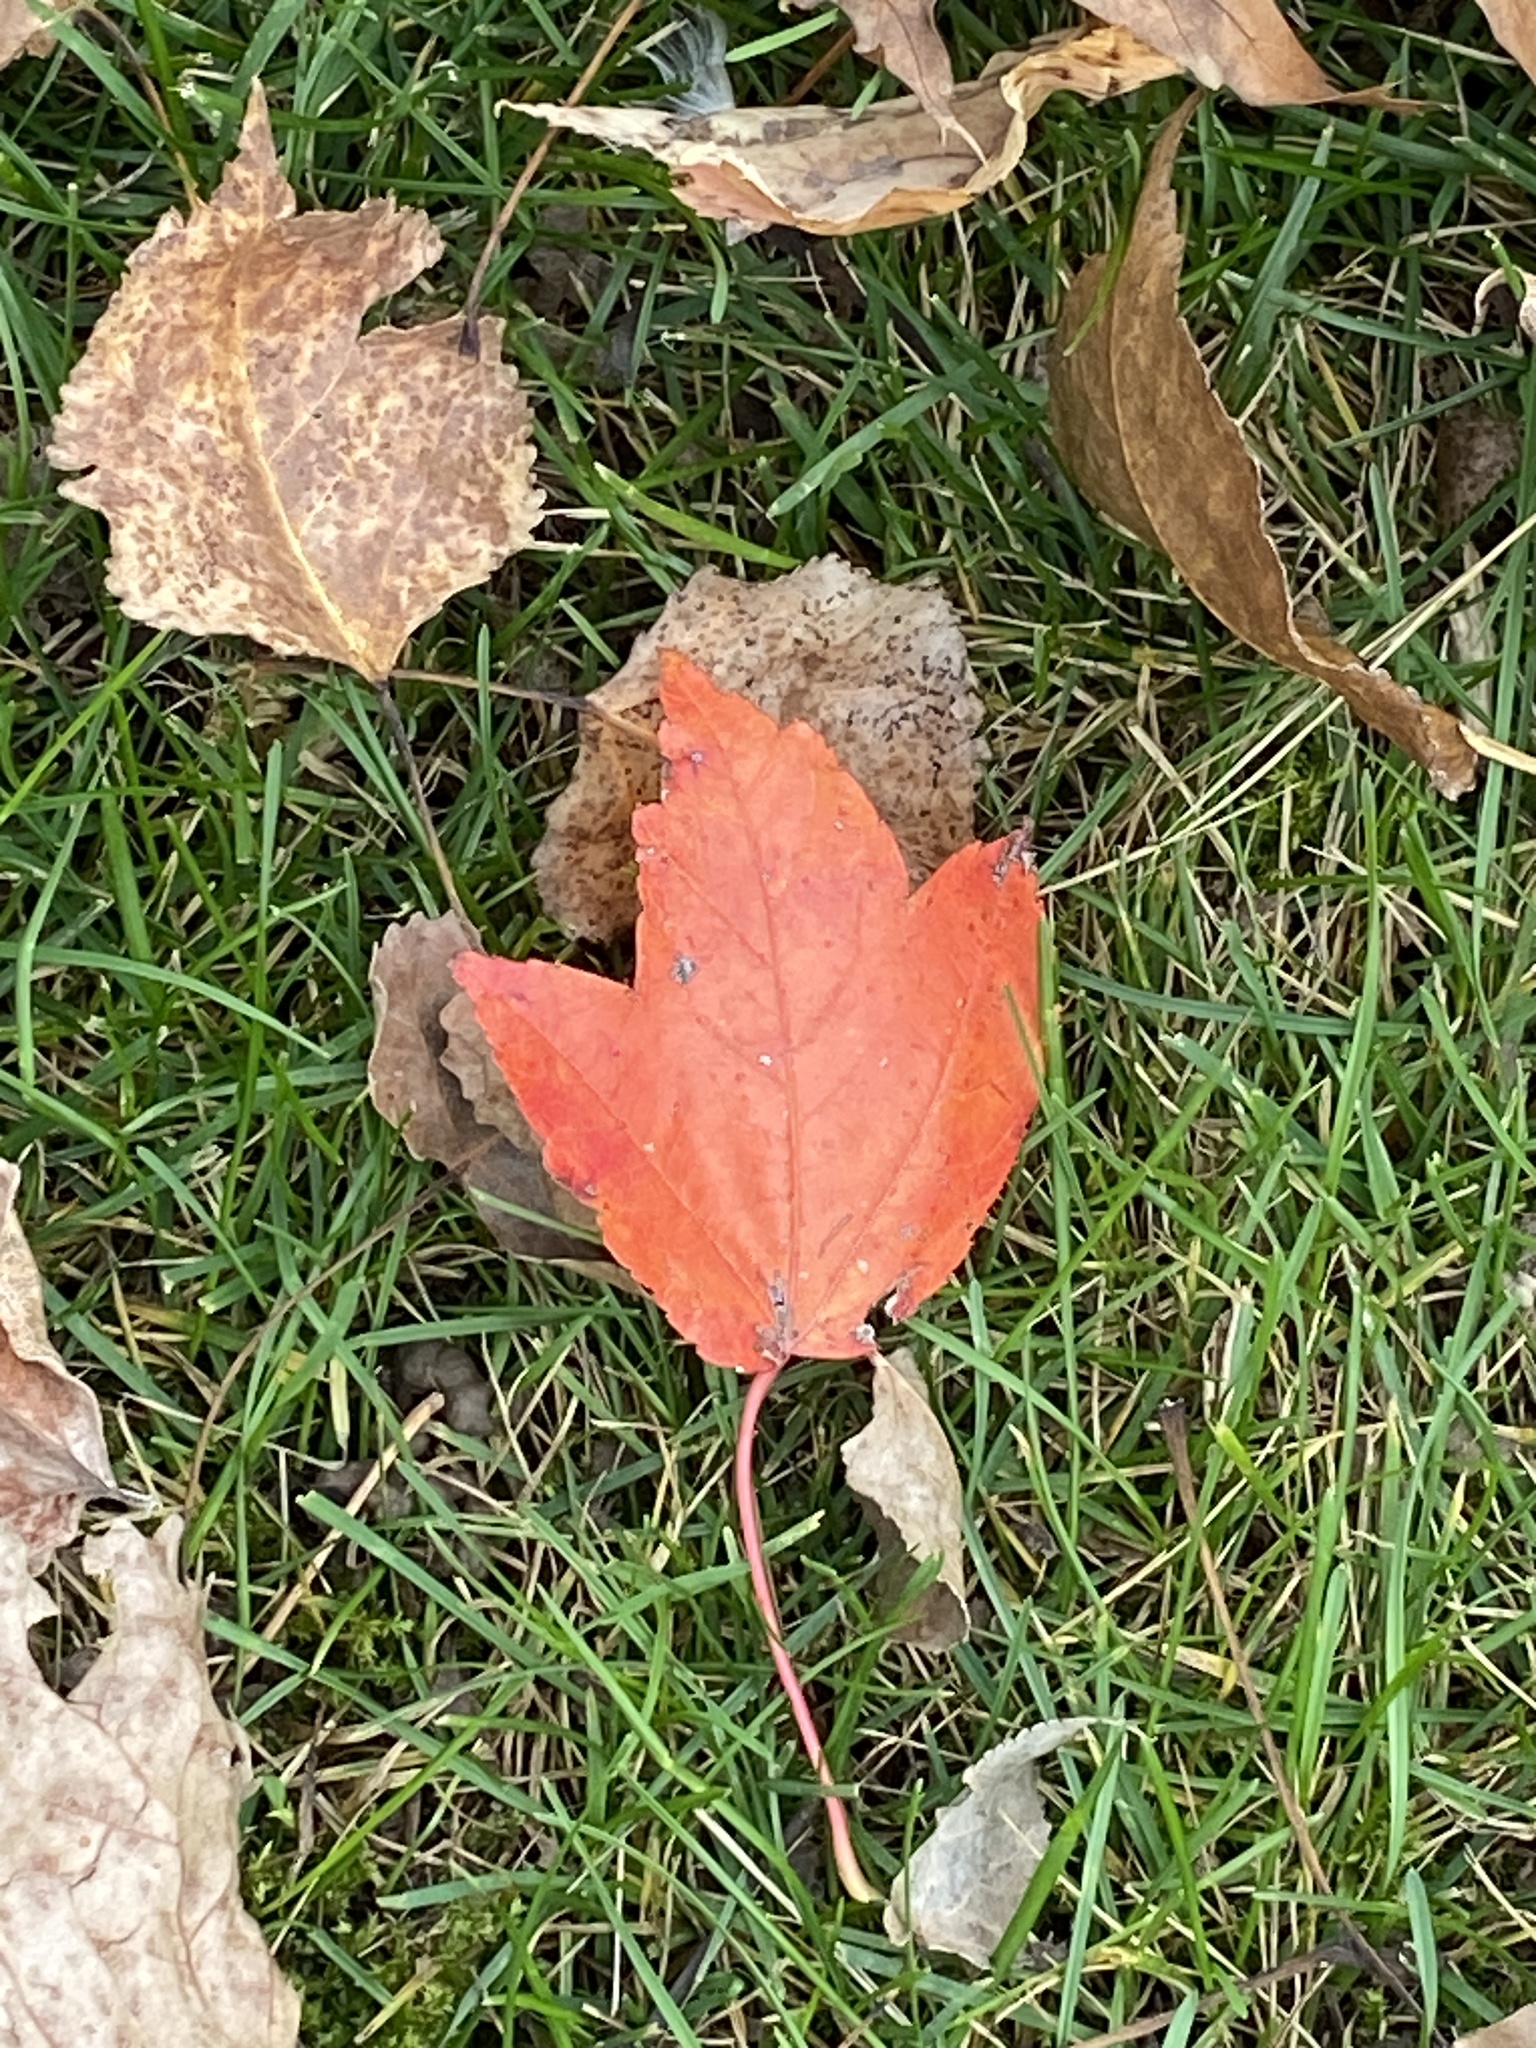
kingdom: Plantae
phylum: Tracheophyta
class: Magnoliopsida
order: Sapindales
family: Sapindaceae
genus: Acer
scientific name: Acer rubrum
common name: Red maple
